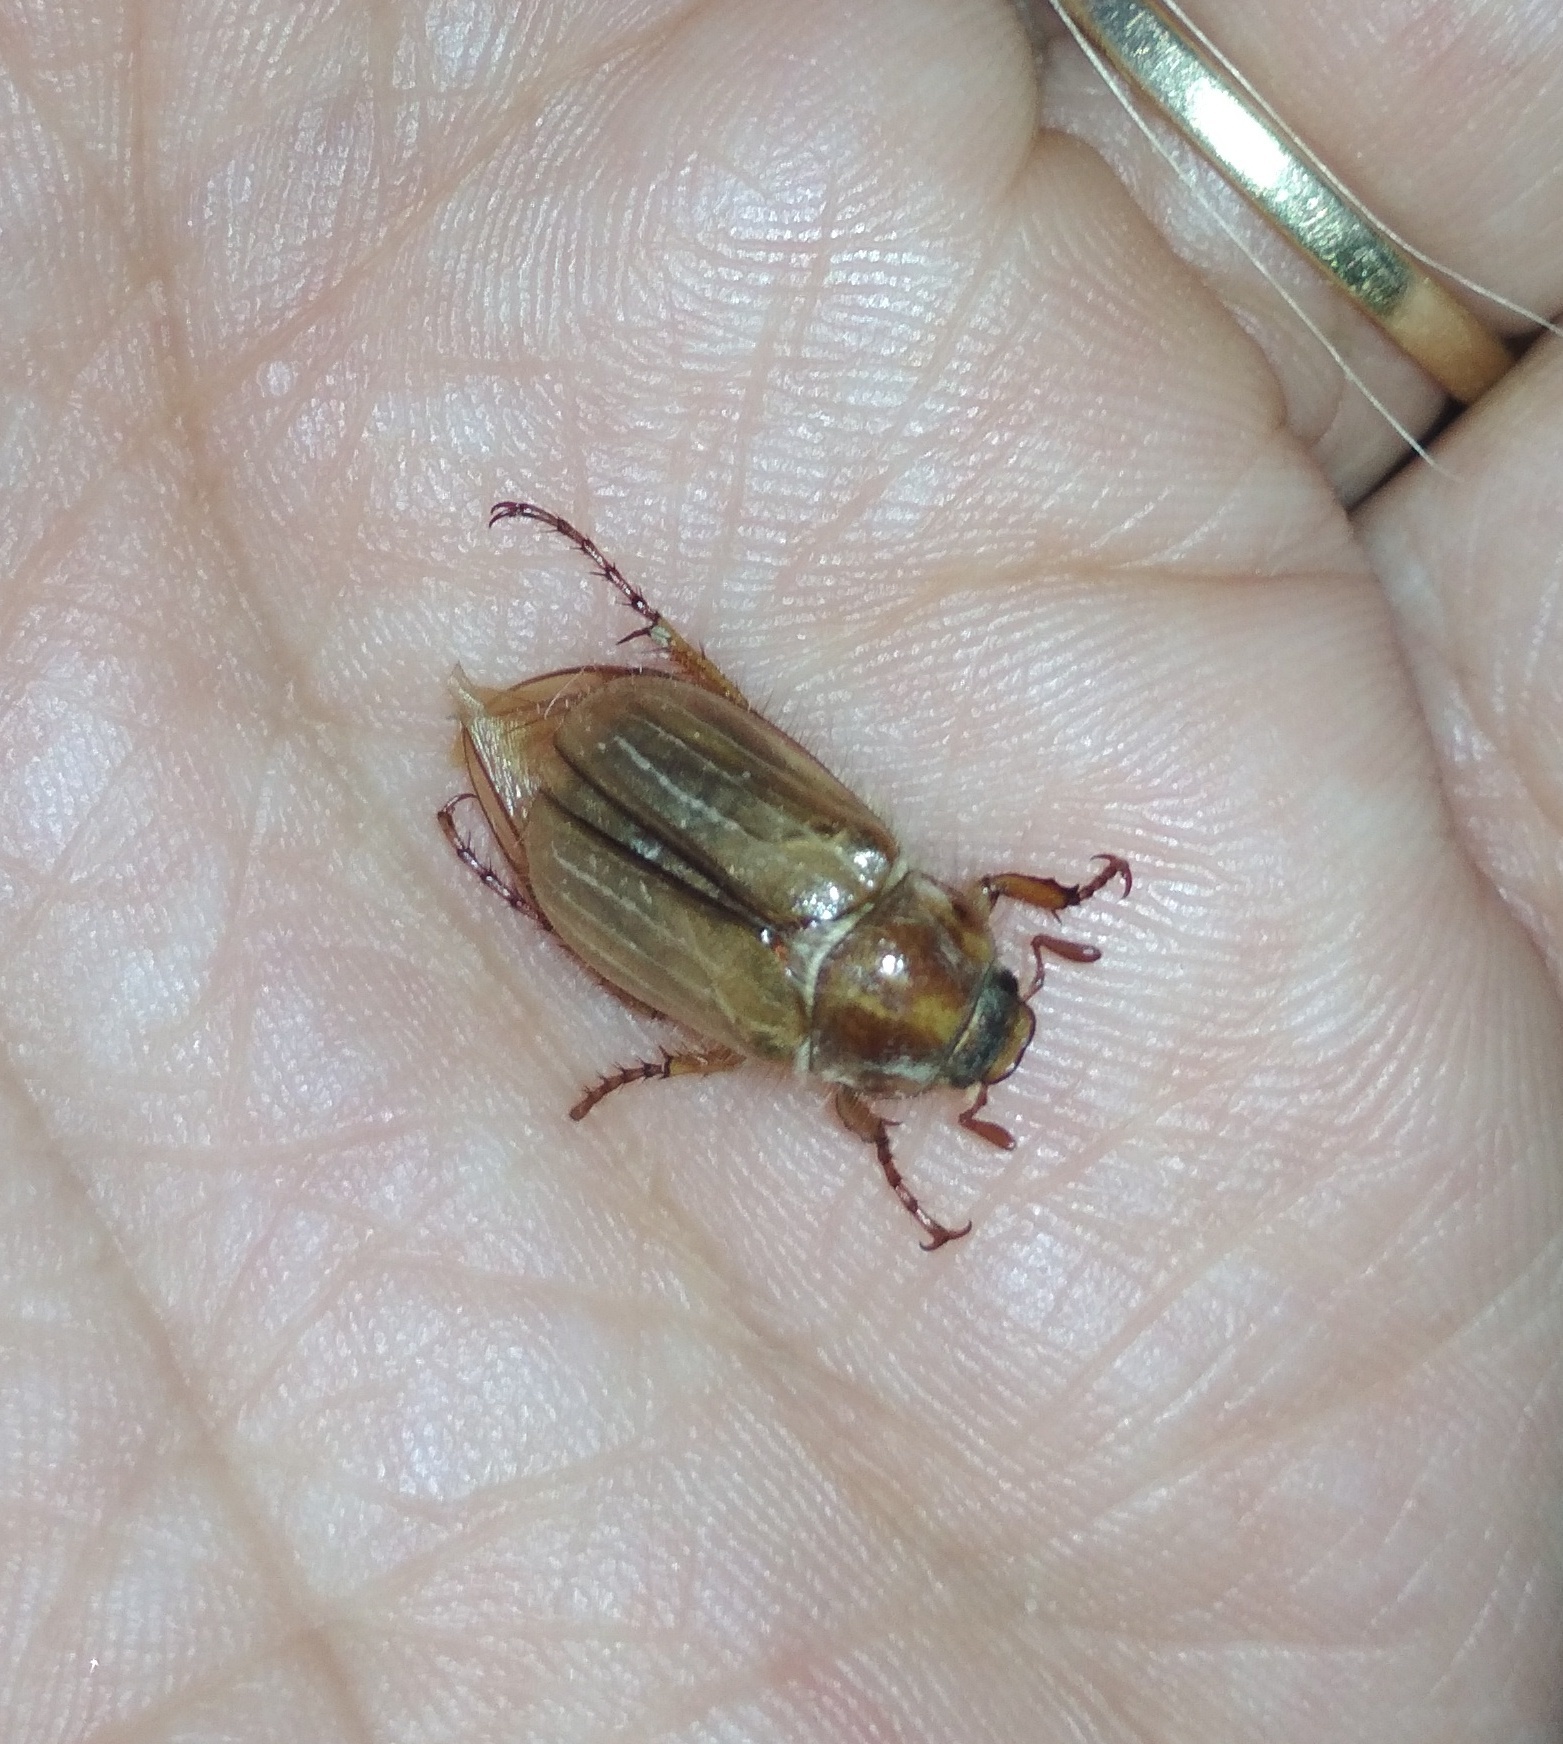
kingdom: Animalia
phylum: Arthropoda
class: Insecta
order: Coleoptera
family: Scarabaeidae
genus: Amphimallon
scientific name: Amphimallon solstitiale
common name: Summer chafer
